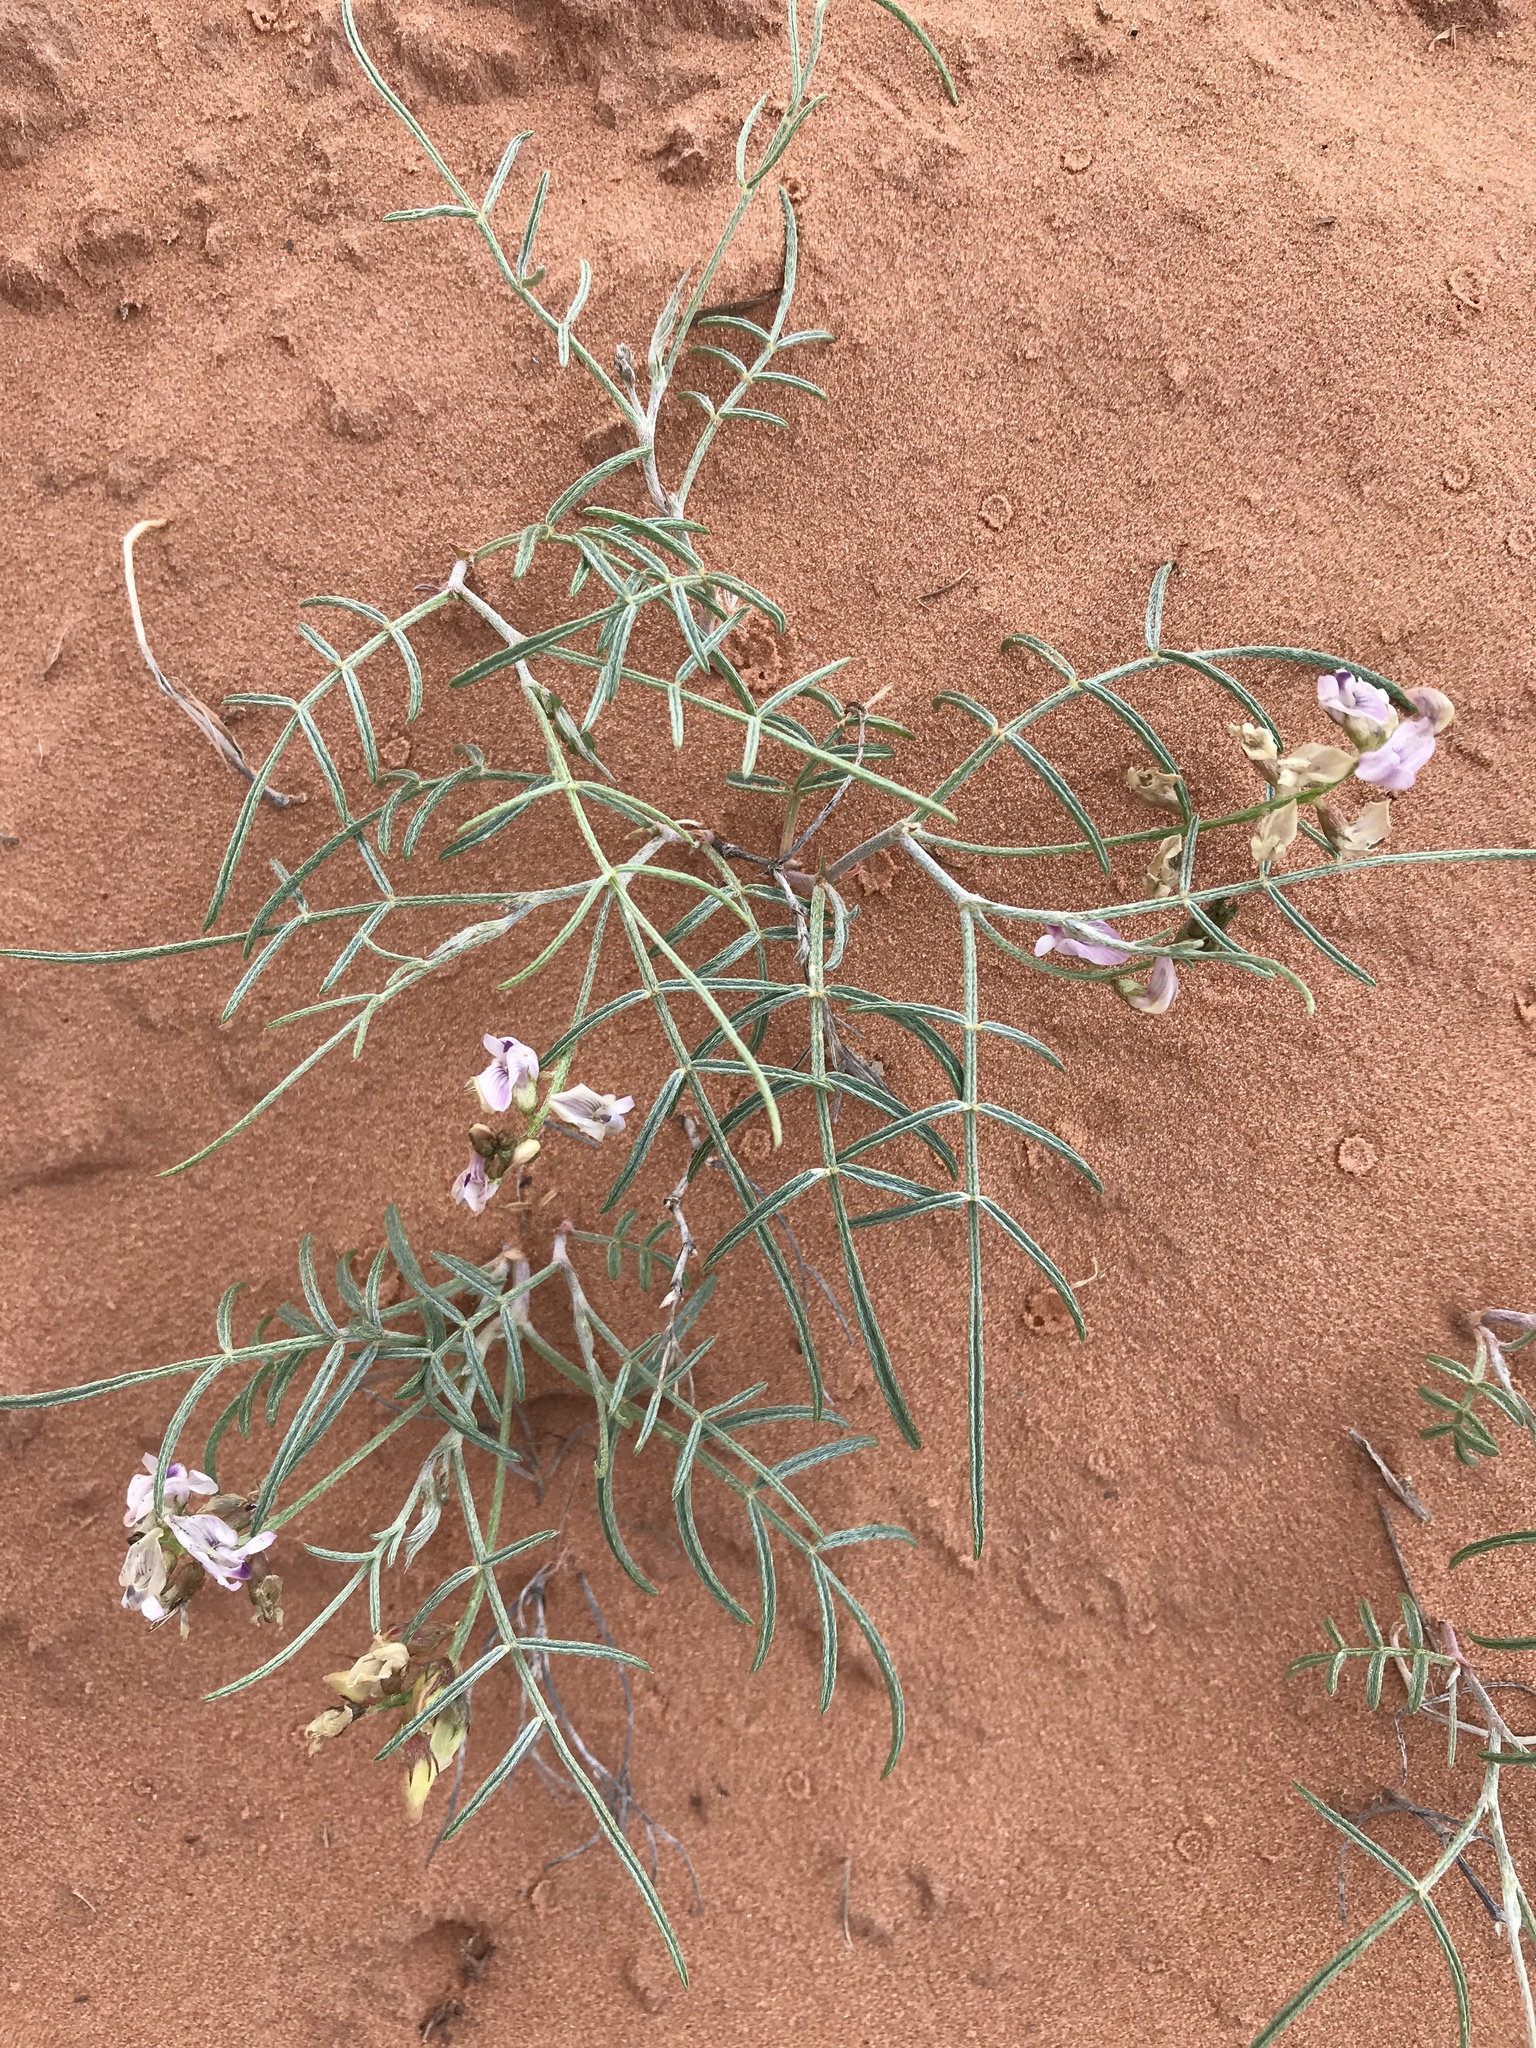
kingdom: Plantae
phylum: Tracheophyta
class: Magnoliopsida
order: Fabales
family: Fabaceae
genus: Astragalus
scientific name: Astragalus ceramicus
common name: Painted milk-vetch
